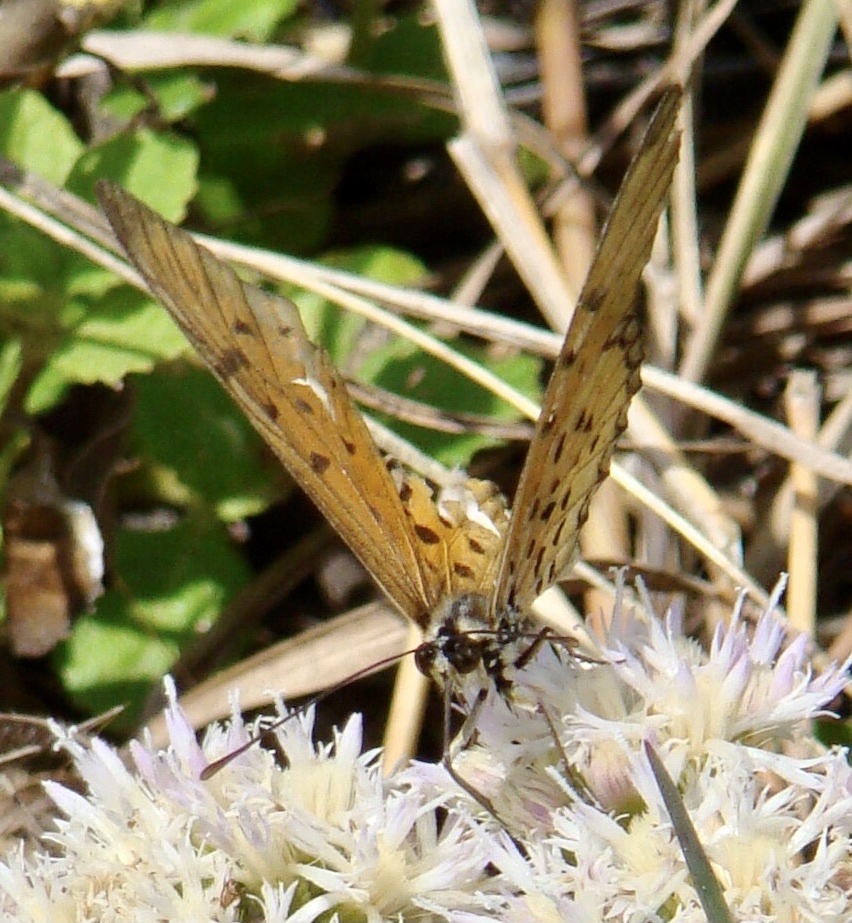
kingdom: Animalia
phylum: Arthropoda
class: Insecta
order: Lepidoptera
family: Nymphalidae
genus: Stephenia
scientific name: Stephenia
